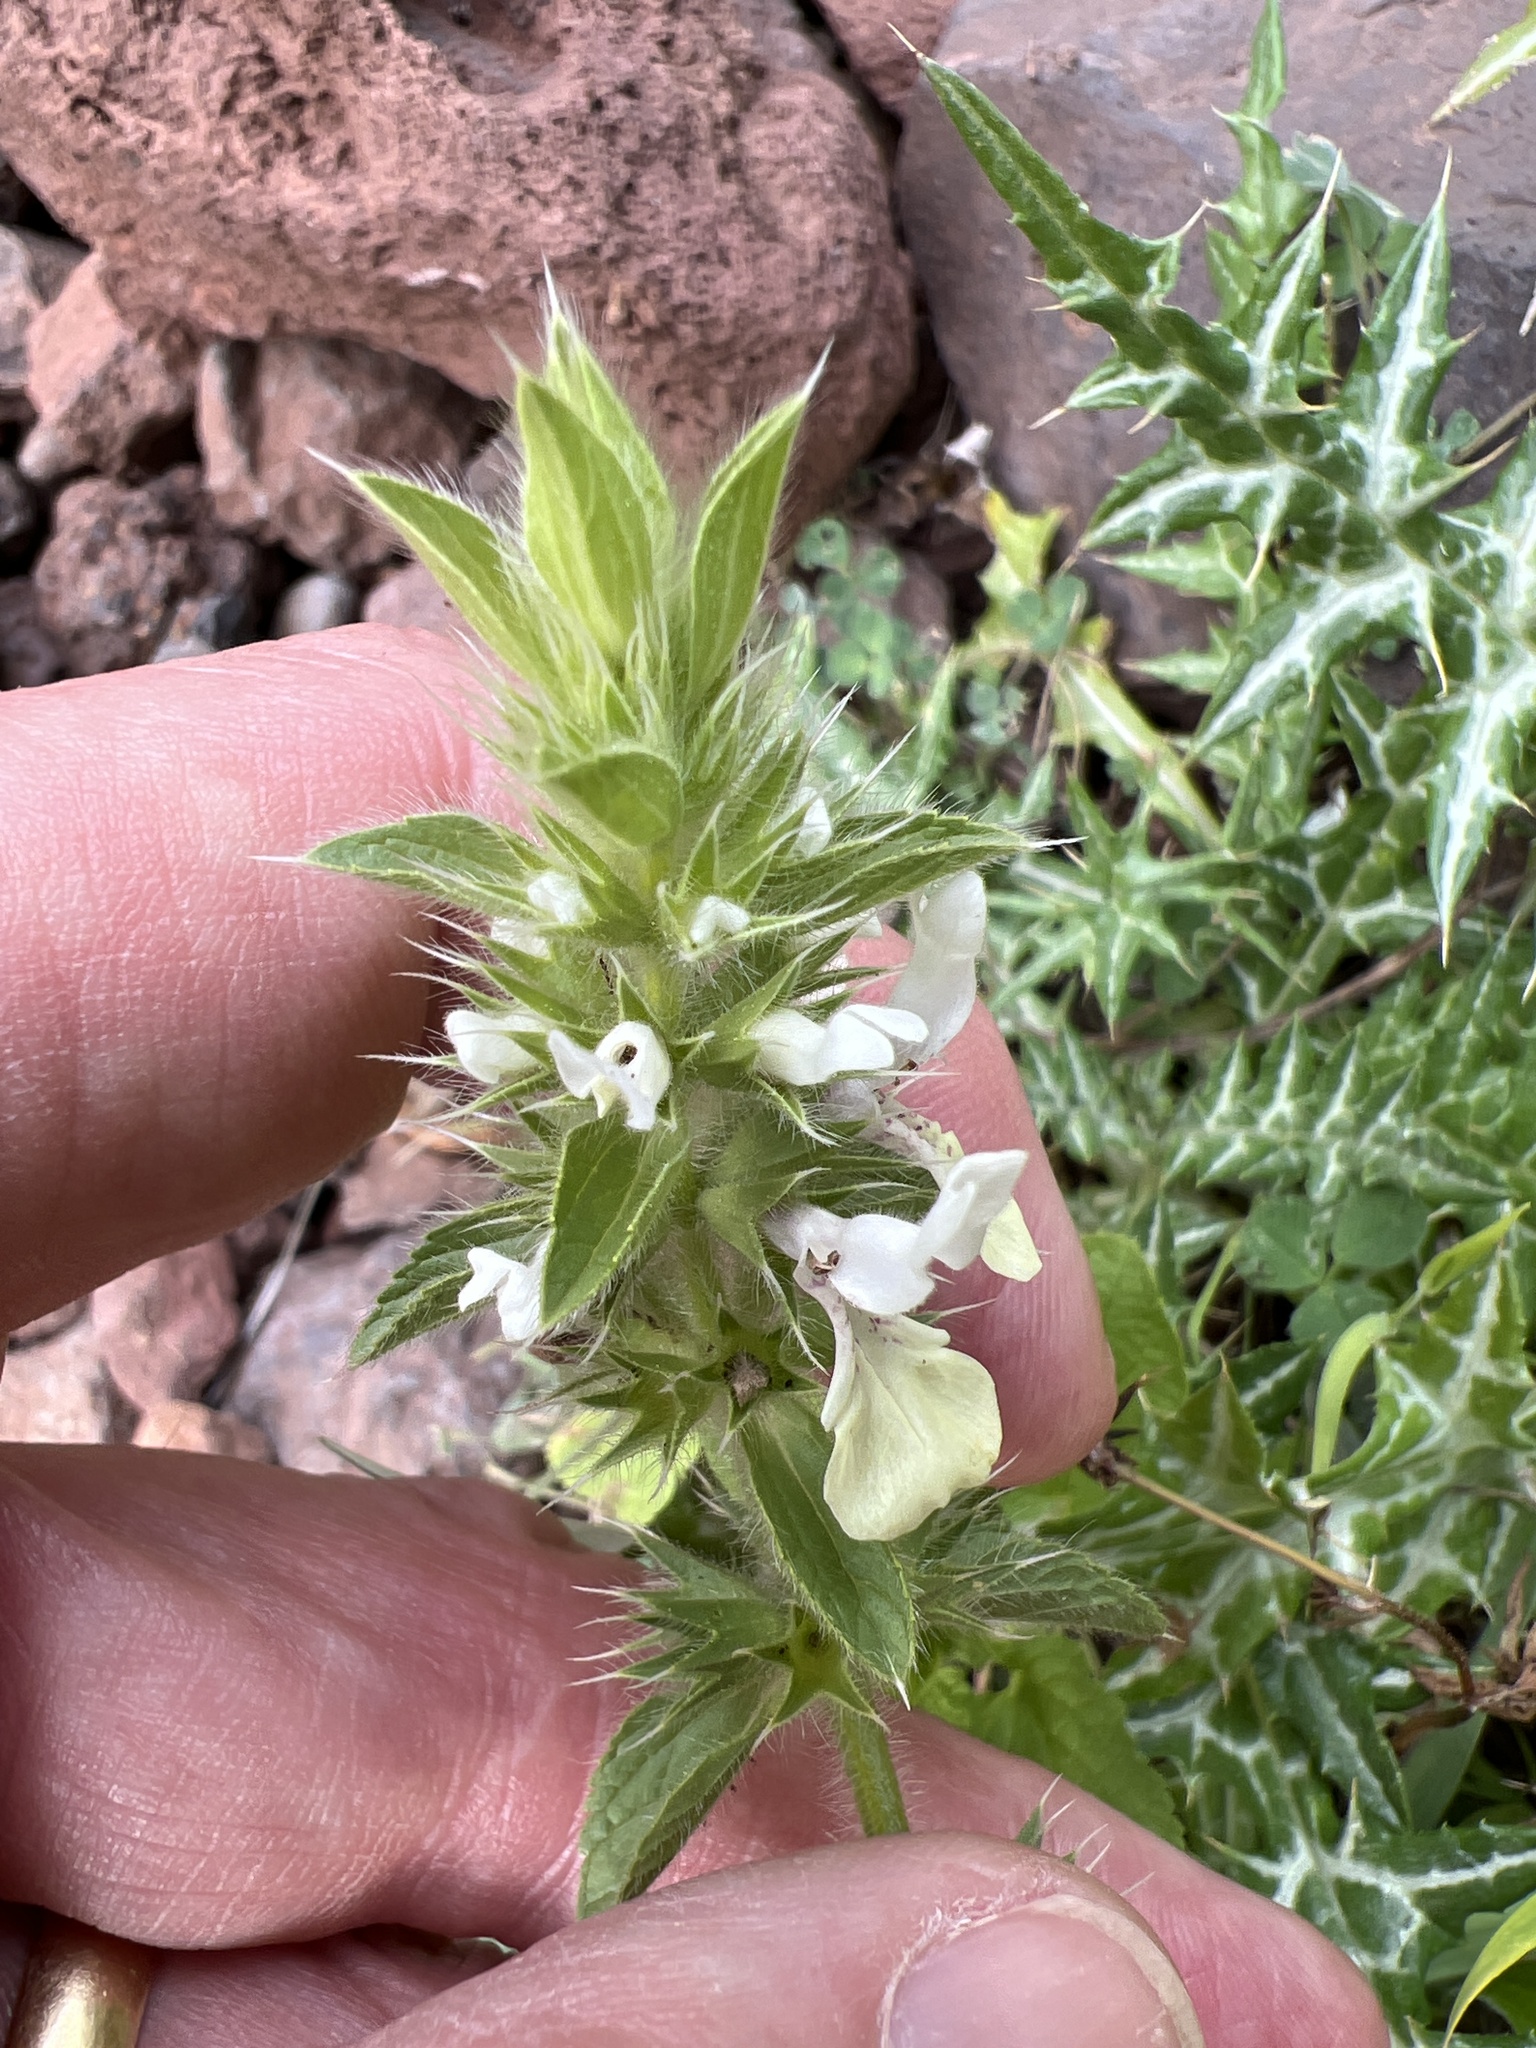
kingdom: Plantae
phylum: Tracheophyta
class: Magnoliopsida
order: Lamiales
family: Lamiaceae
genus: Stachys
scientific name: Stachys ocymastrum
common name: Italian hedgenettle
